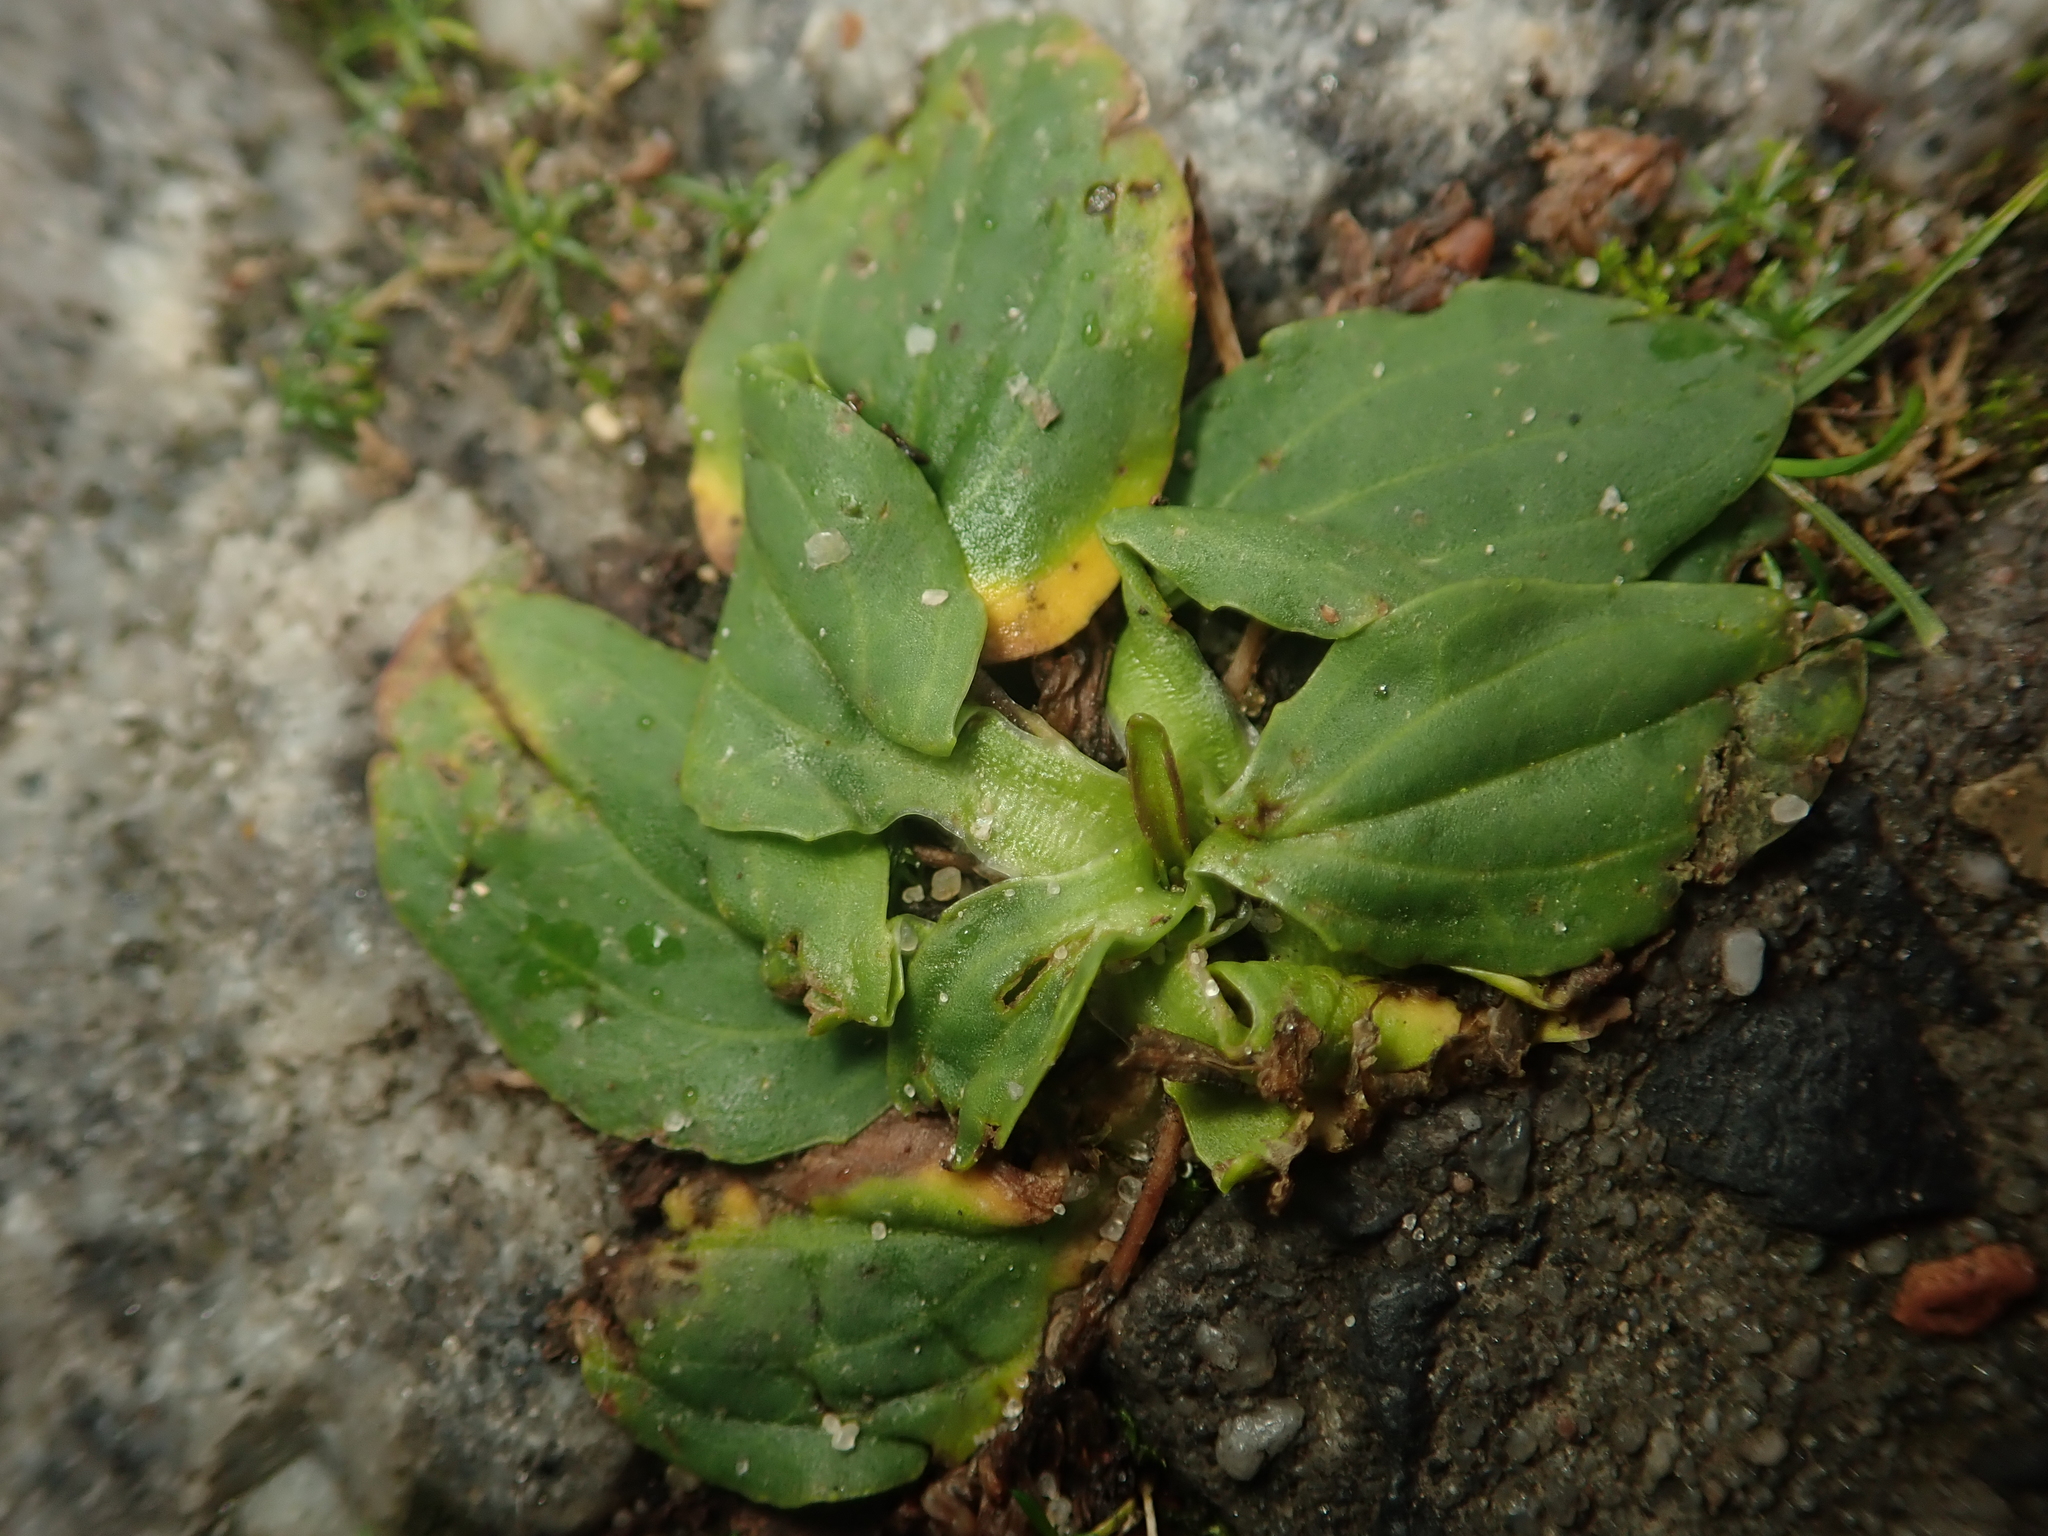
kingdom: Plantae
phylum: Tracheophyta
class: Magnoliopsida
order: Lamiales
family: Plantaginaceae
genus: Plantago
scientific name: Plantago major
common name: Common plantain
